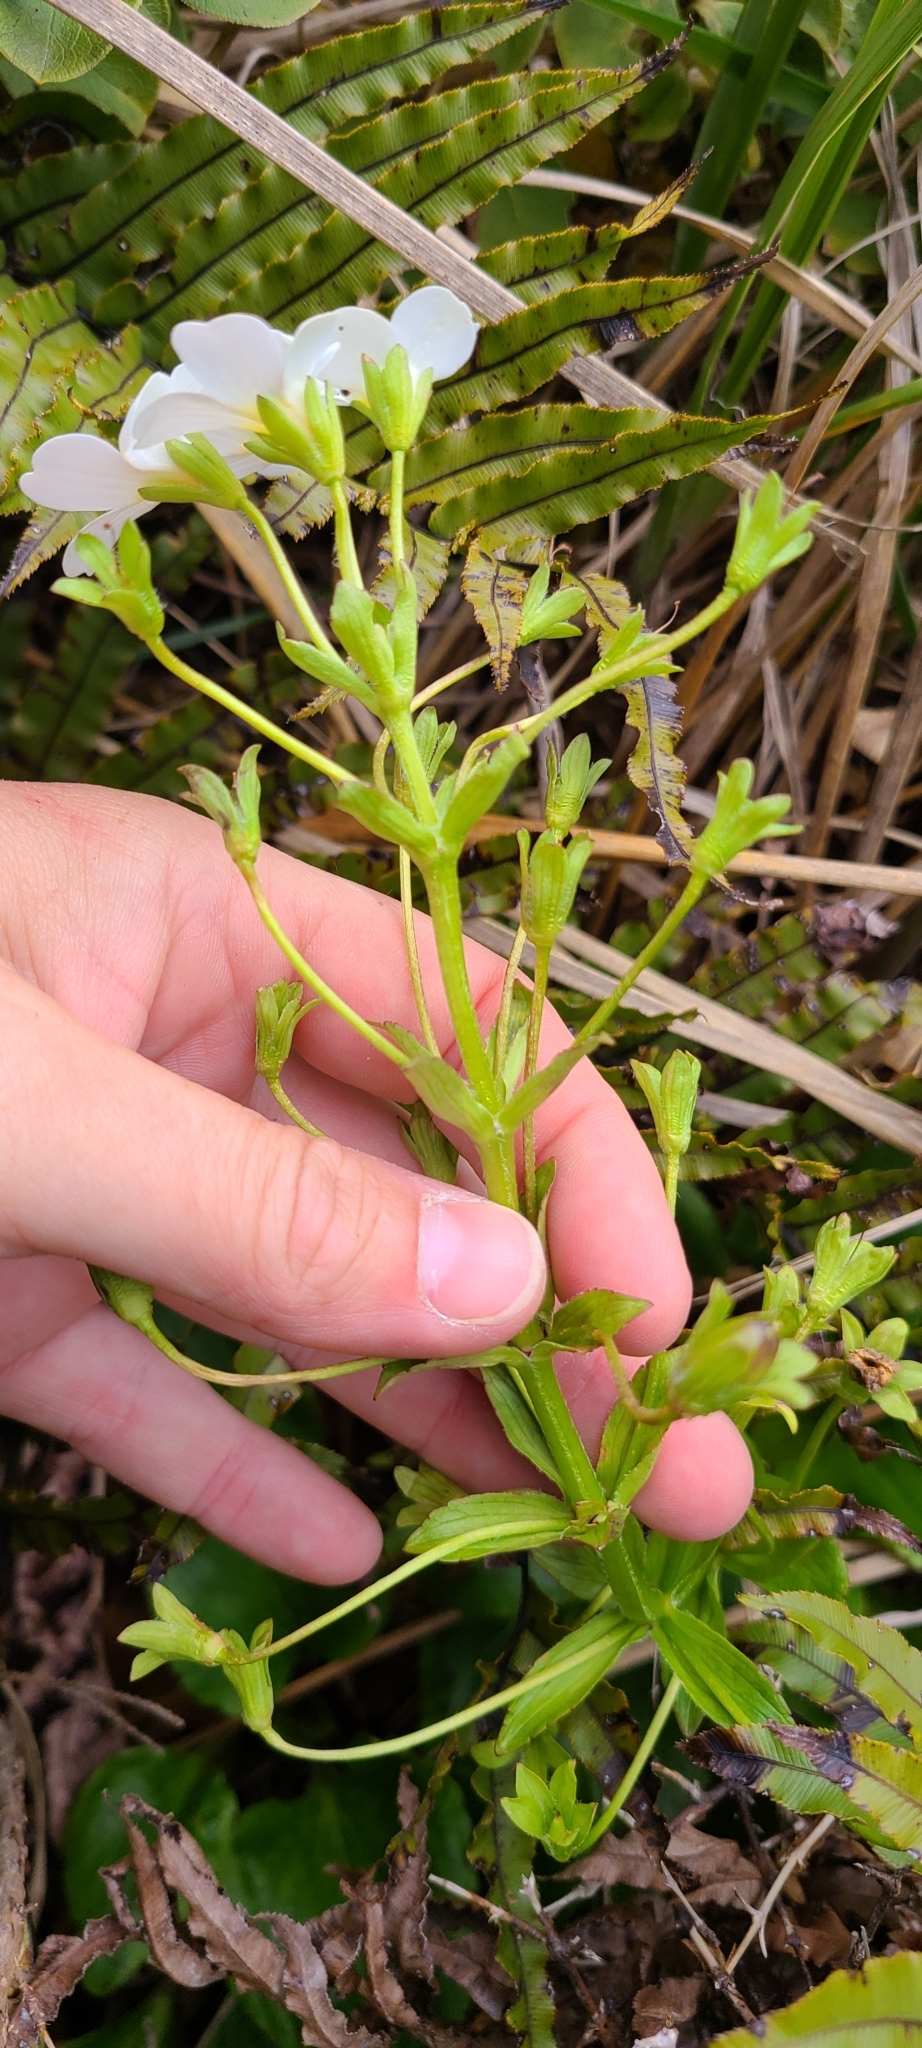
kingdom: Plantae
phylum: Tracheophyta
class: Magnoliopsida
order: Lamiales
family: Plantaginaceae
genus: Ourisia
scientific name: Ourisia calycina
